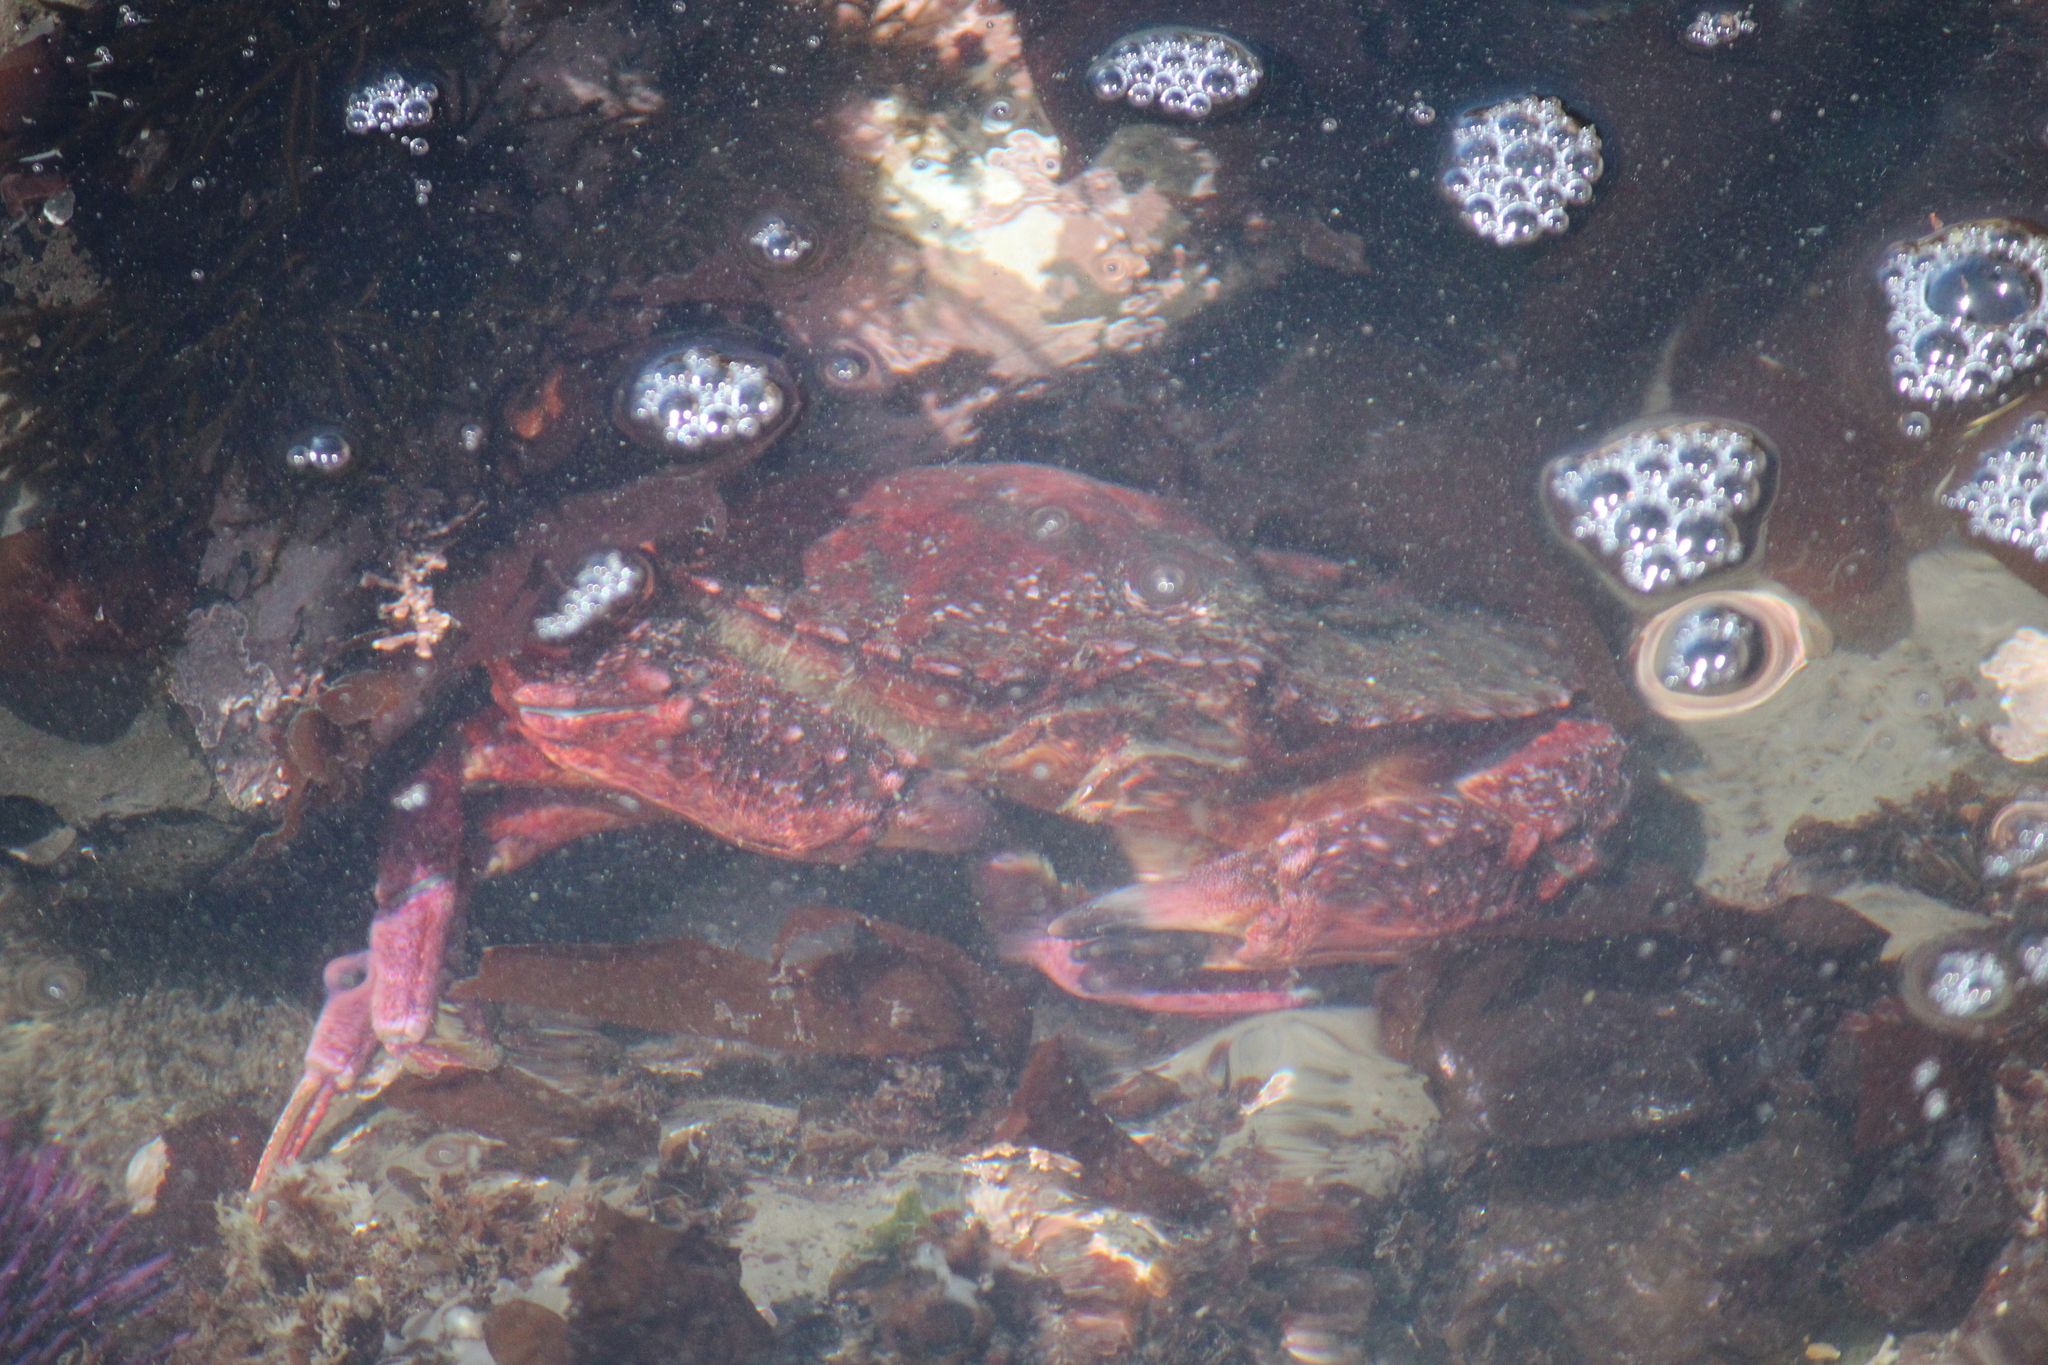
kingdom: Animalia
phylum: Arthropoda
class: Malacostraca
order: Decapoda
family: Cancridae
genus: Cancer
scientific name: Cancer productus
